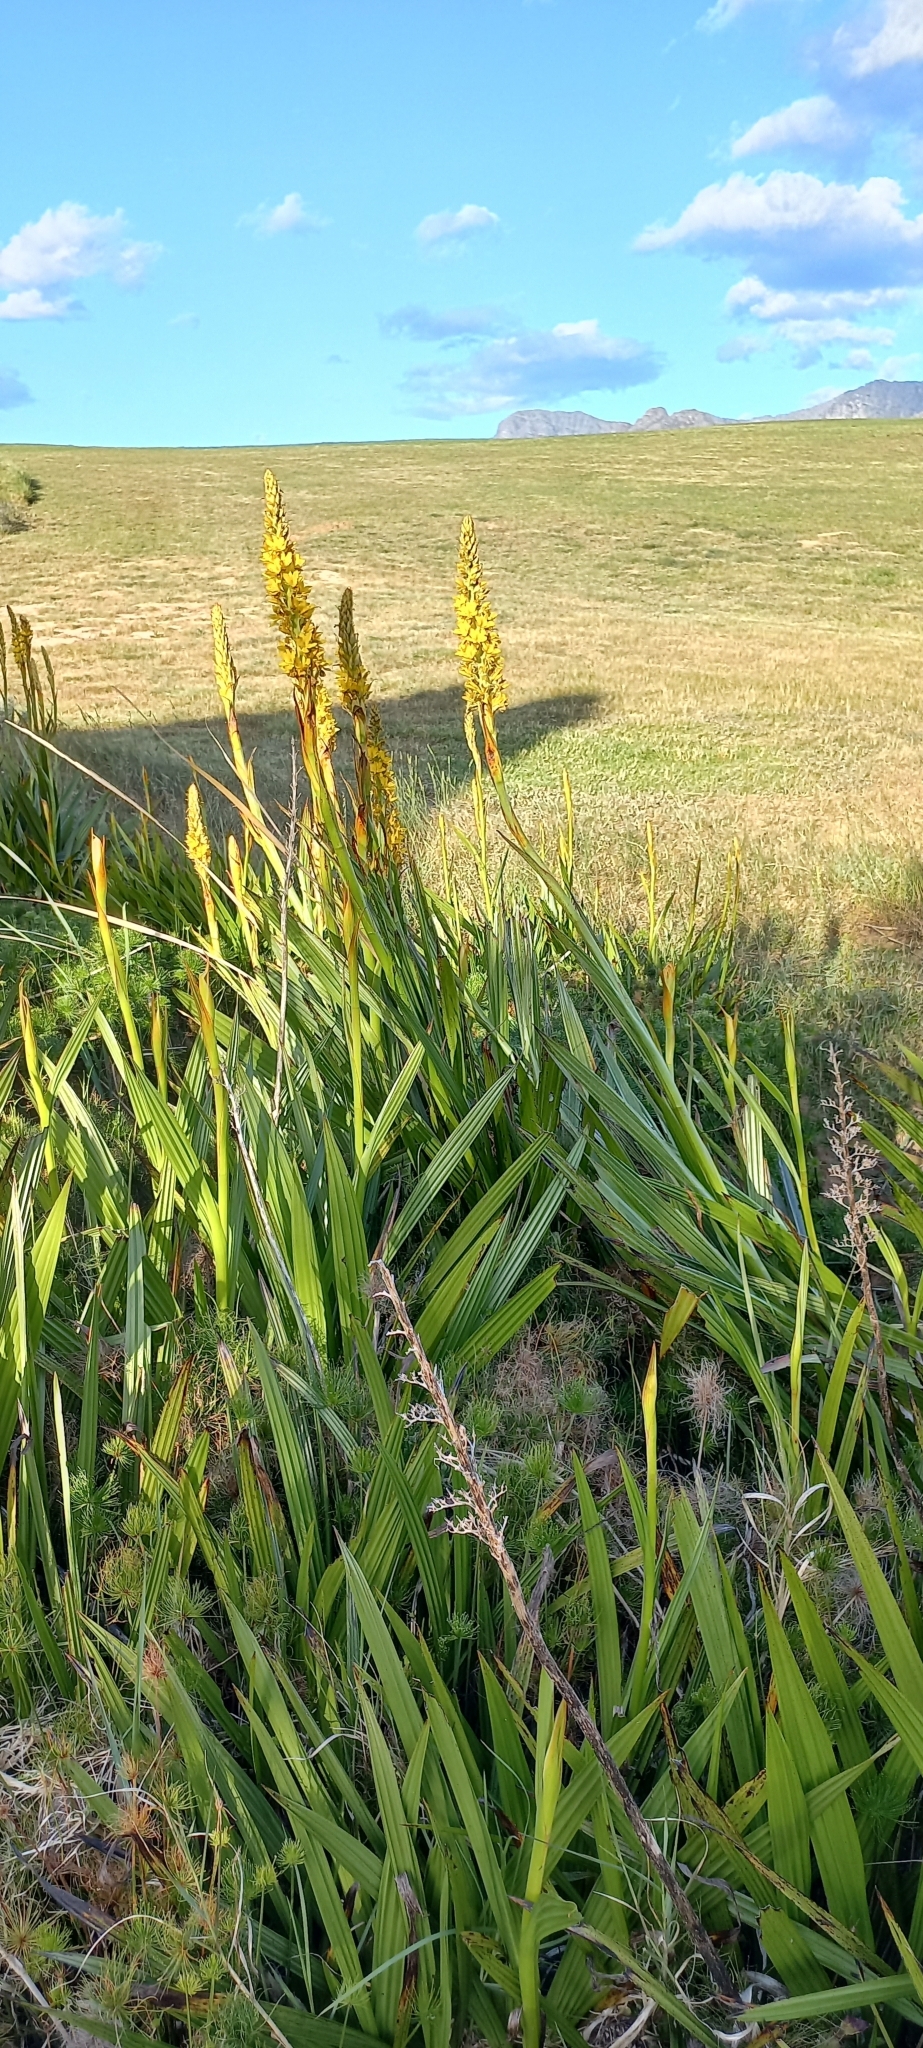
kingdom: Plantae
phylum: Tracheophyta
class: Liliopsida
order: Commelinales
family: Haemodoraceae
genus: Wachendorfia
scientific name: Wachendorfia thyrsiflora
